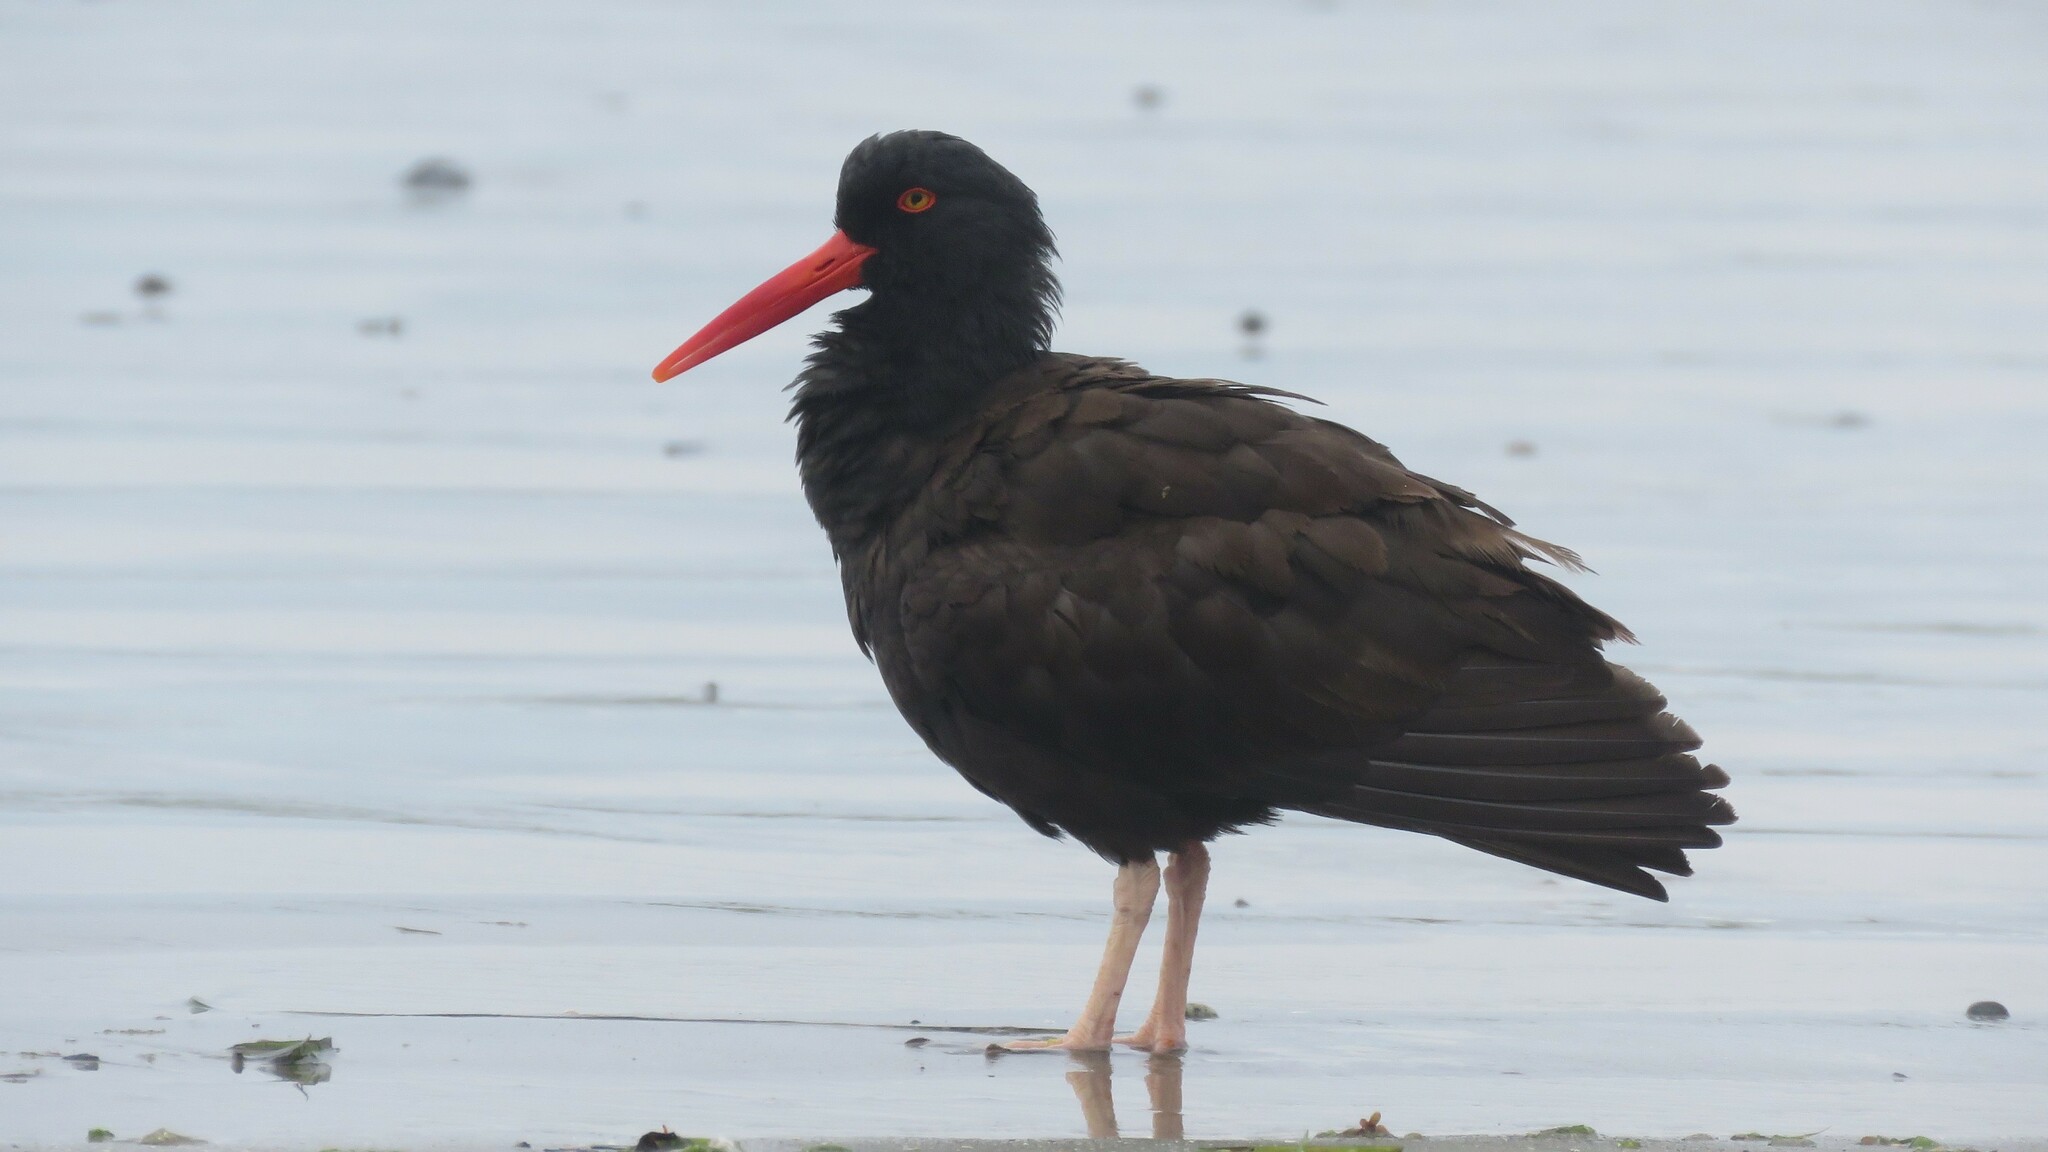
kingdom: Animalia
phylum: Chordata
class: Aves
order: Charadriiformes
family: Haematopodidae
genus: Haematopus
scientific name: Haematopus bachmani
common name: Black oystercatcher
